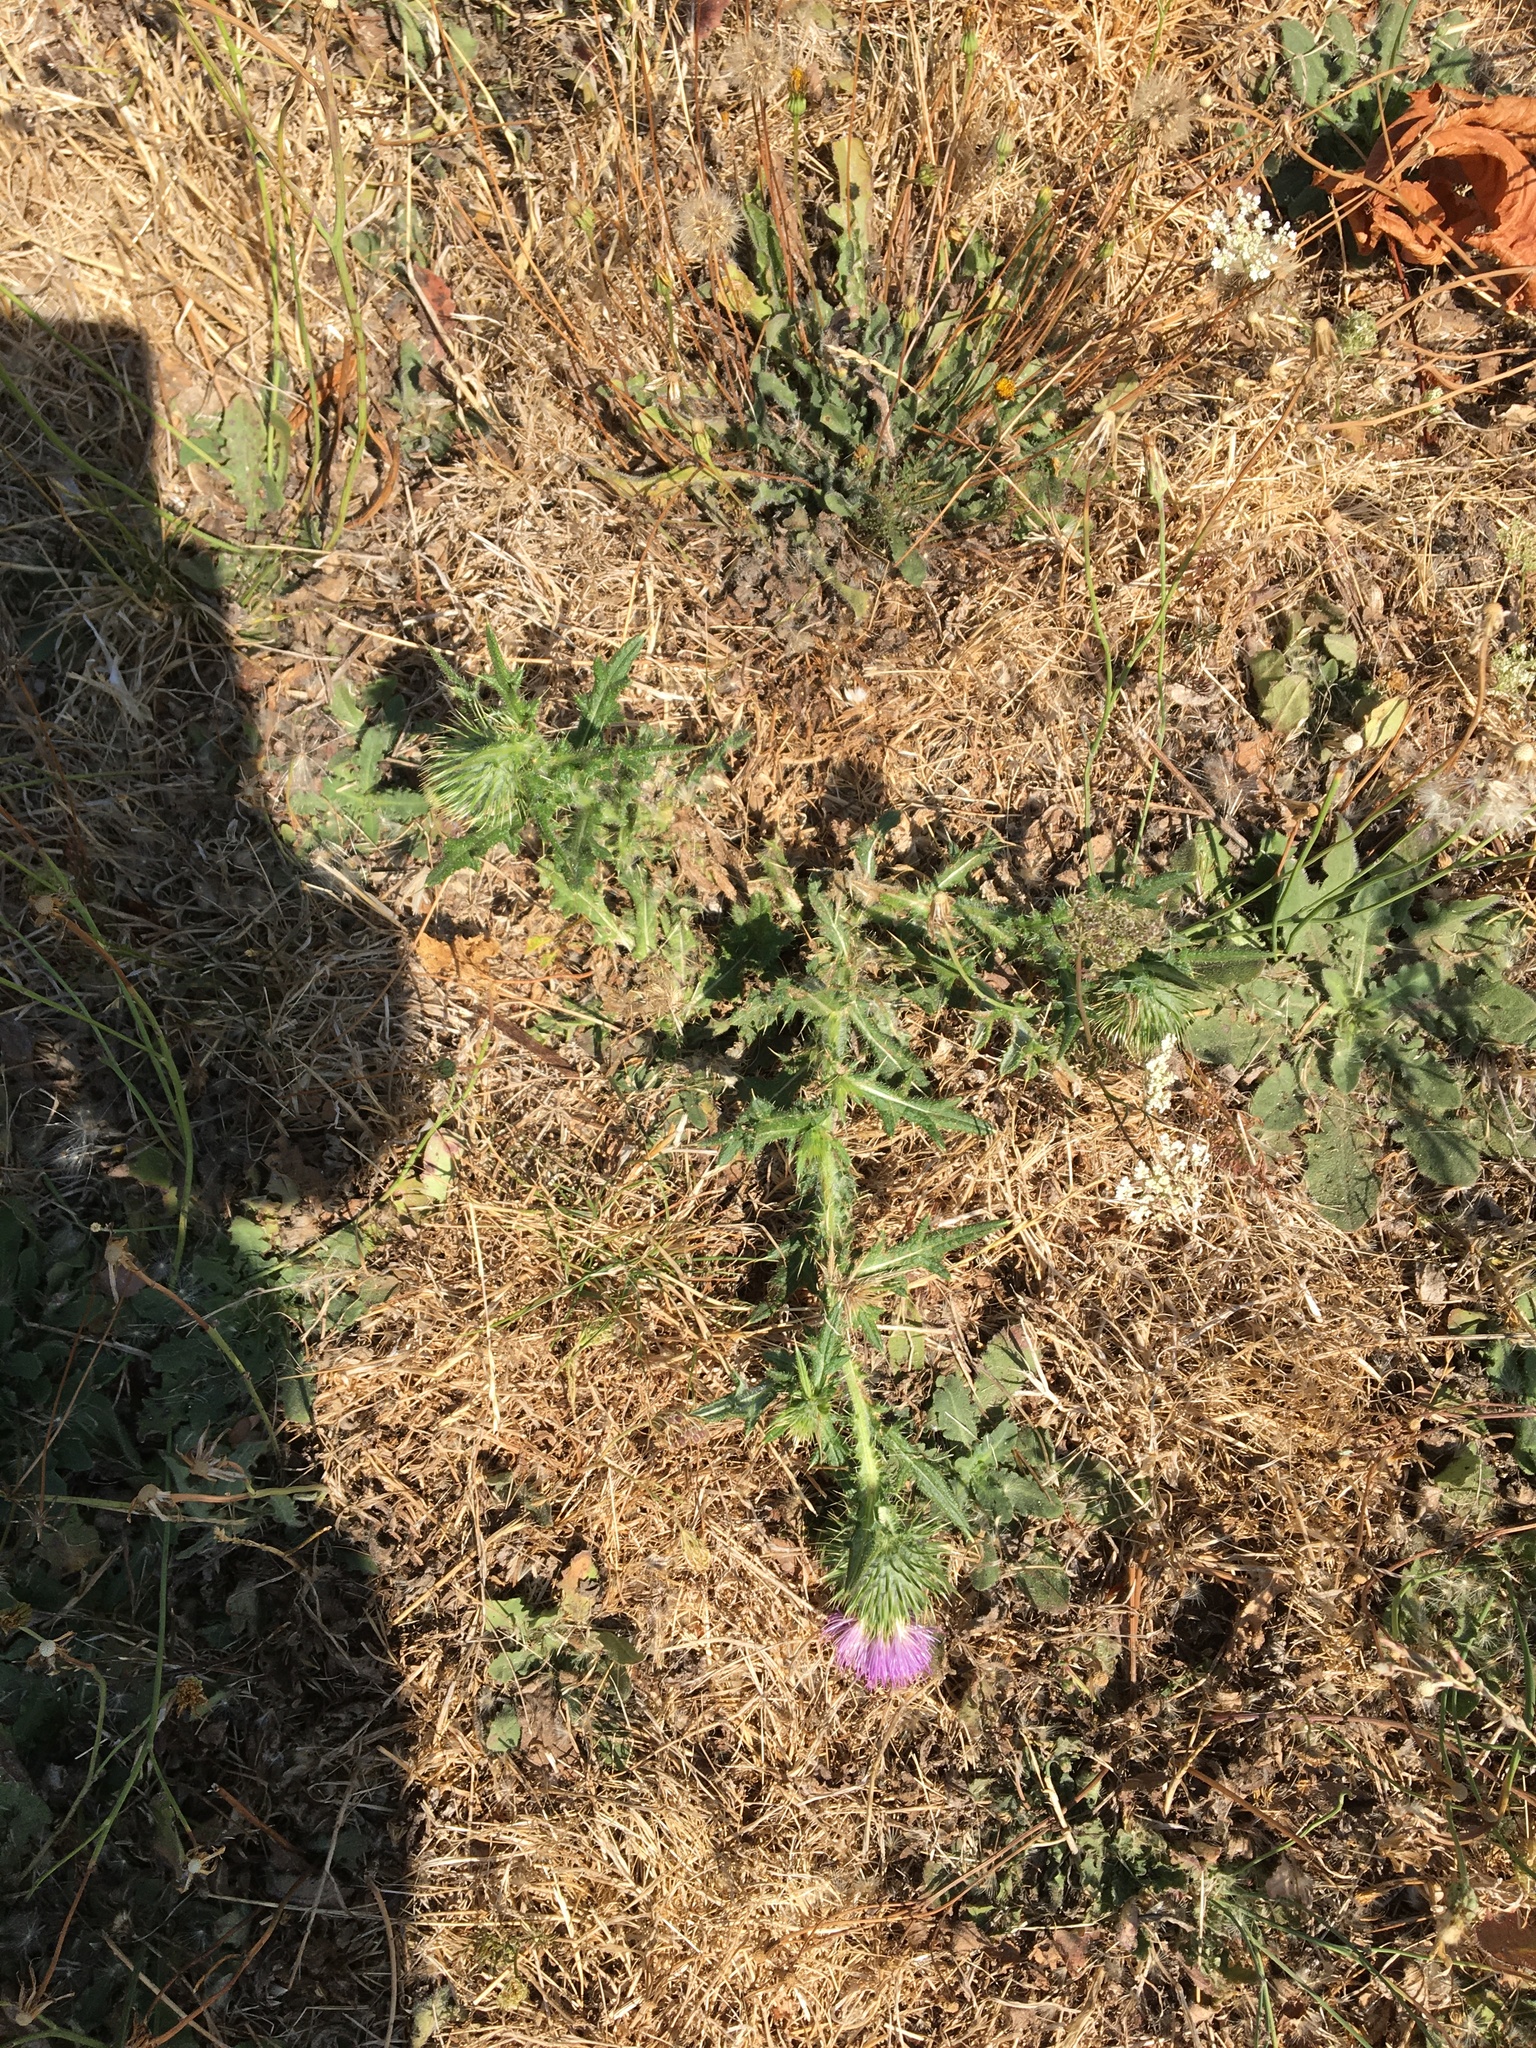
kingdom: Plantae
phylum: Tracheophyta
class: Magnoliopsida
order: Asterales
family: Asteraceae
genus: Cirsium
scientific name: Cirsium vulgare
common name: Bull thistle
